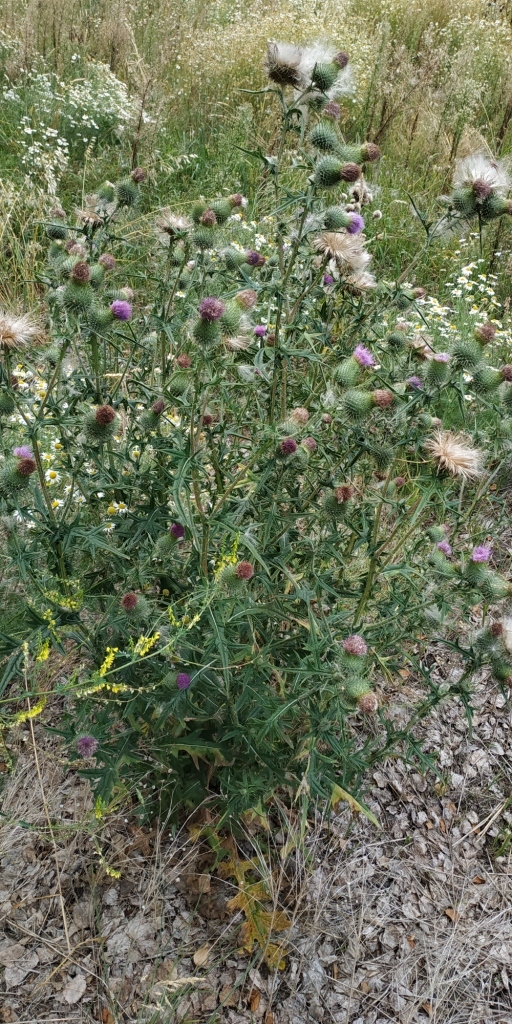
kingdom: Plantae
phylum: Tracheophyta
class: Magnoliopsida
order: Asterales
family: Asteraceae
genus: Cirsium
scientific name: Cirsium vulgare
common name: Bull thistle
